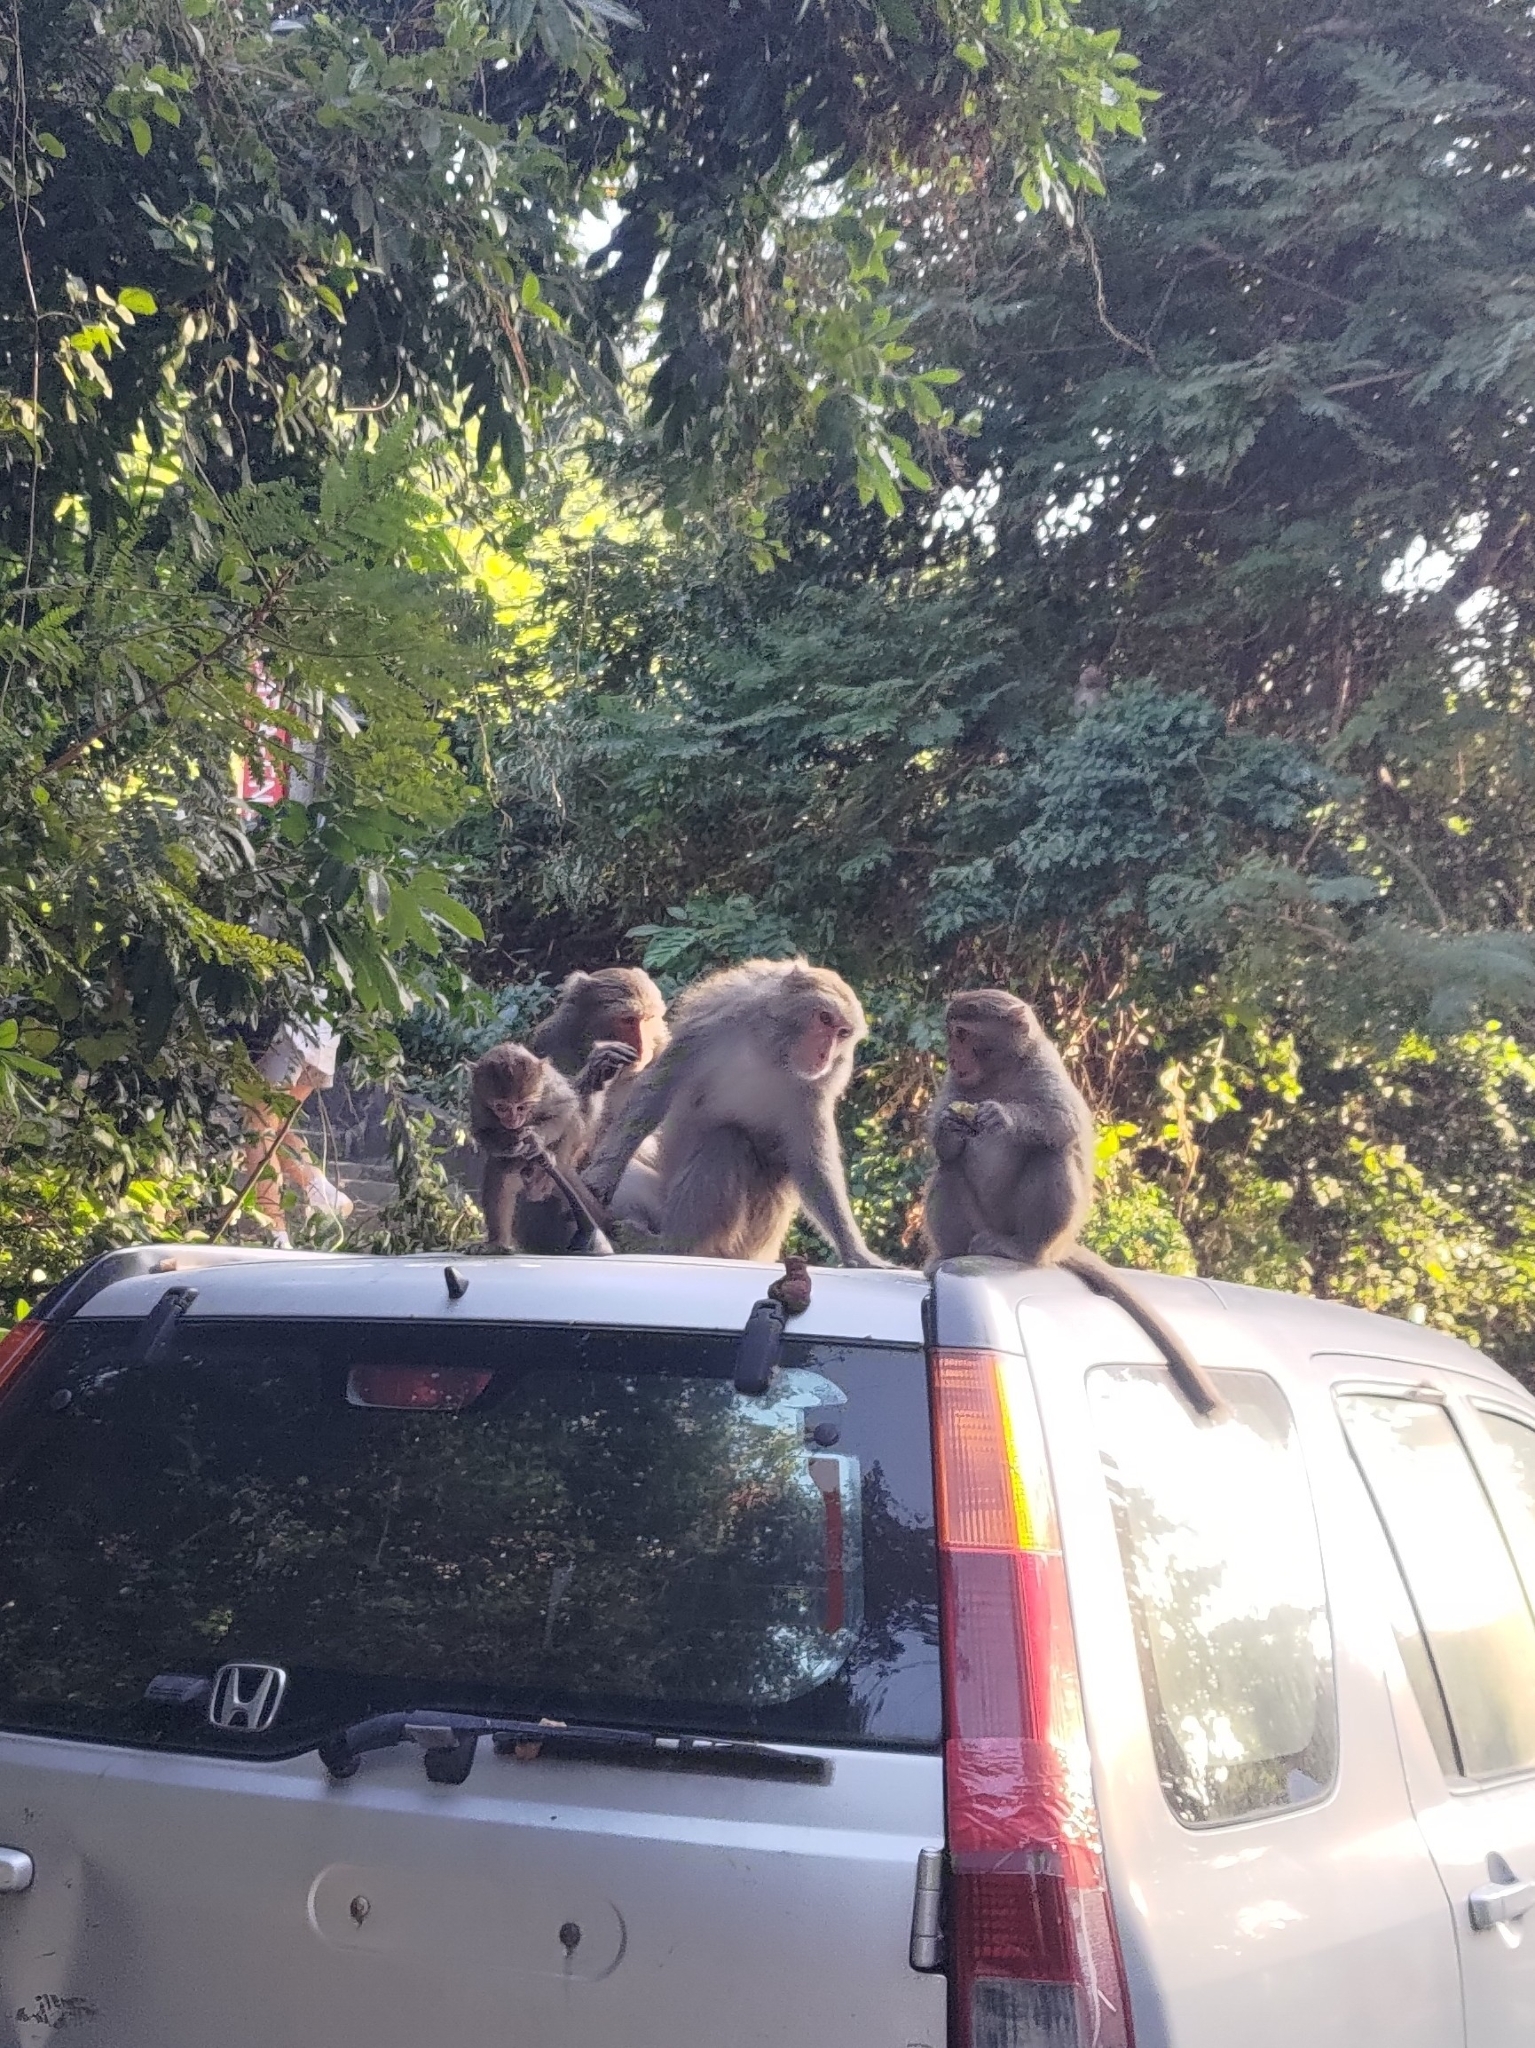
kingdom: Animalia
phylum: Chordata
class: Mammalia
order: Primates
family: Cercopithecidae
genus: Macaca
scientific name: Macaca cyclopis
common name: Formosan rock macaque
